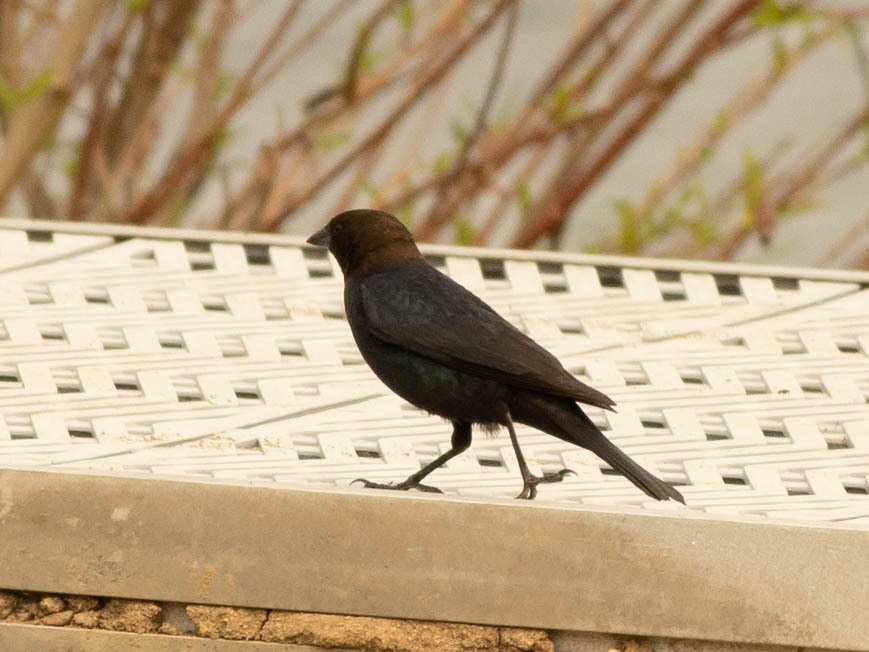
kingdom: Animalia
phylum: Chordata
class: Aves
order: Passeriformes
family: Icteridae
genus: Molothrus
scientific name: Molothrus ater
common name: Brown-headed cowbird
